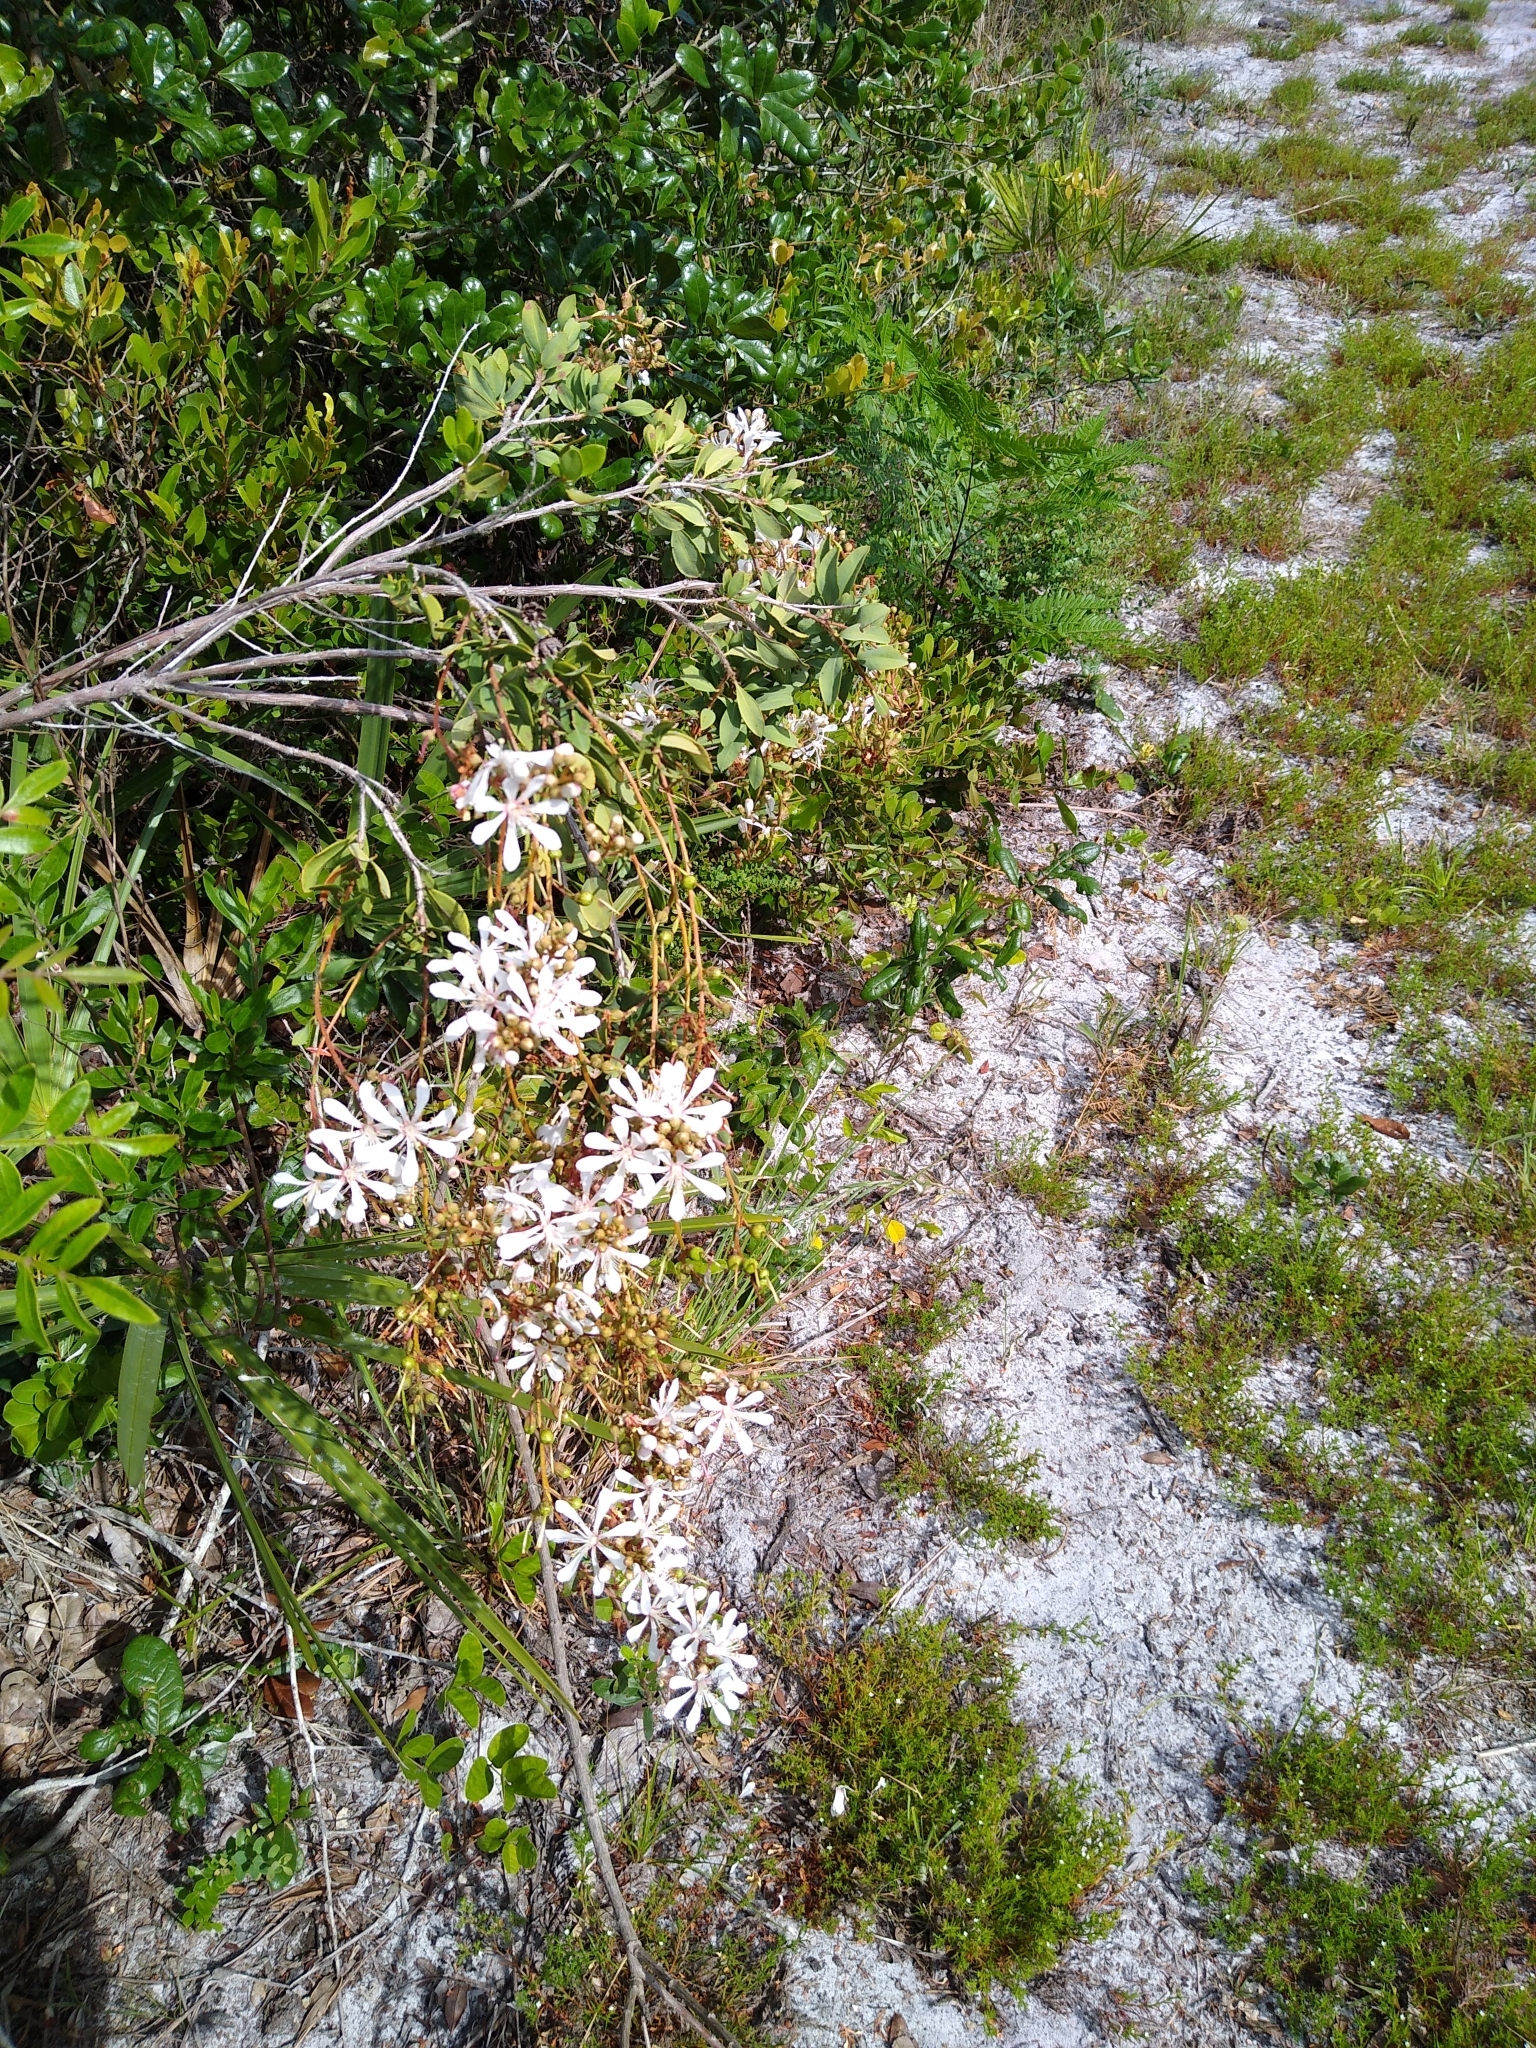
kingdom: Plantae
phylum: Tracheophyta
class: Magnoliopsida
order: Ericales
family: Ericaceae
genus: Bejaria
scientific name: Bejaria racemosa
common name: Tarflower
